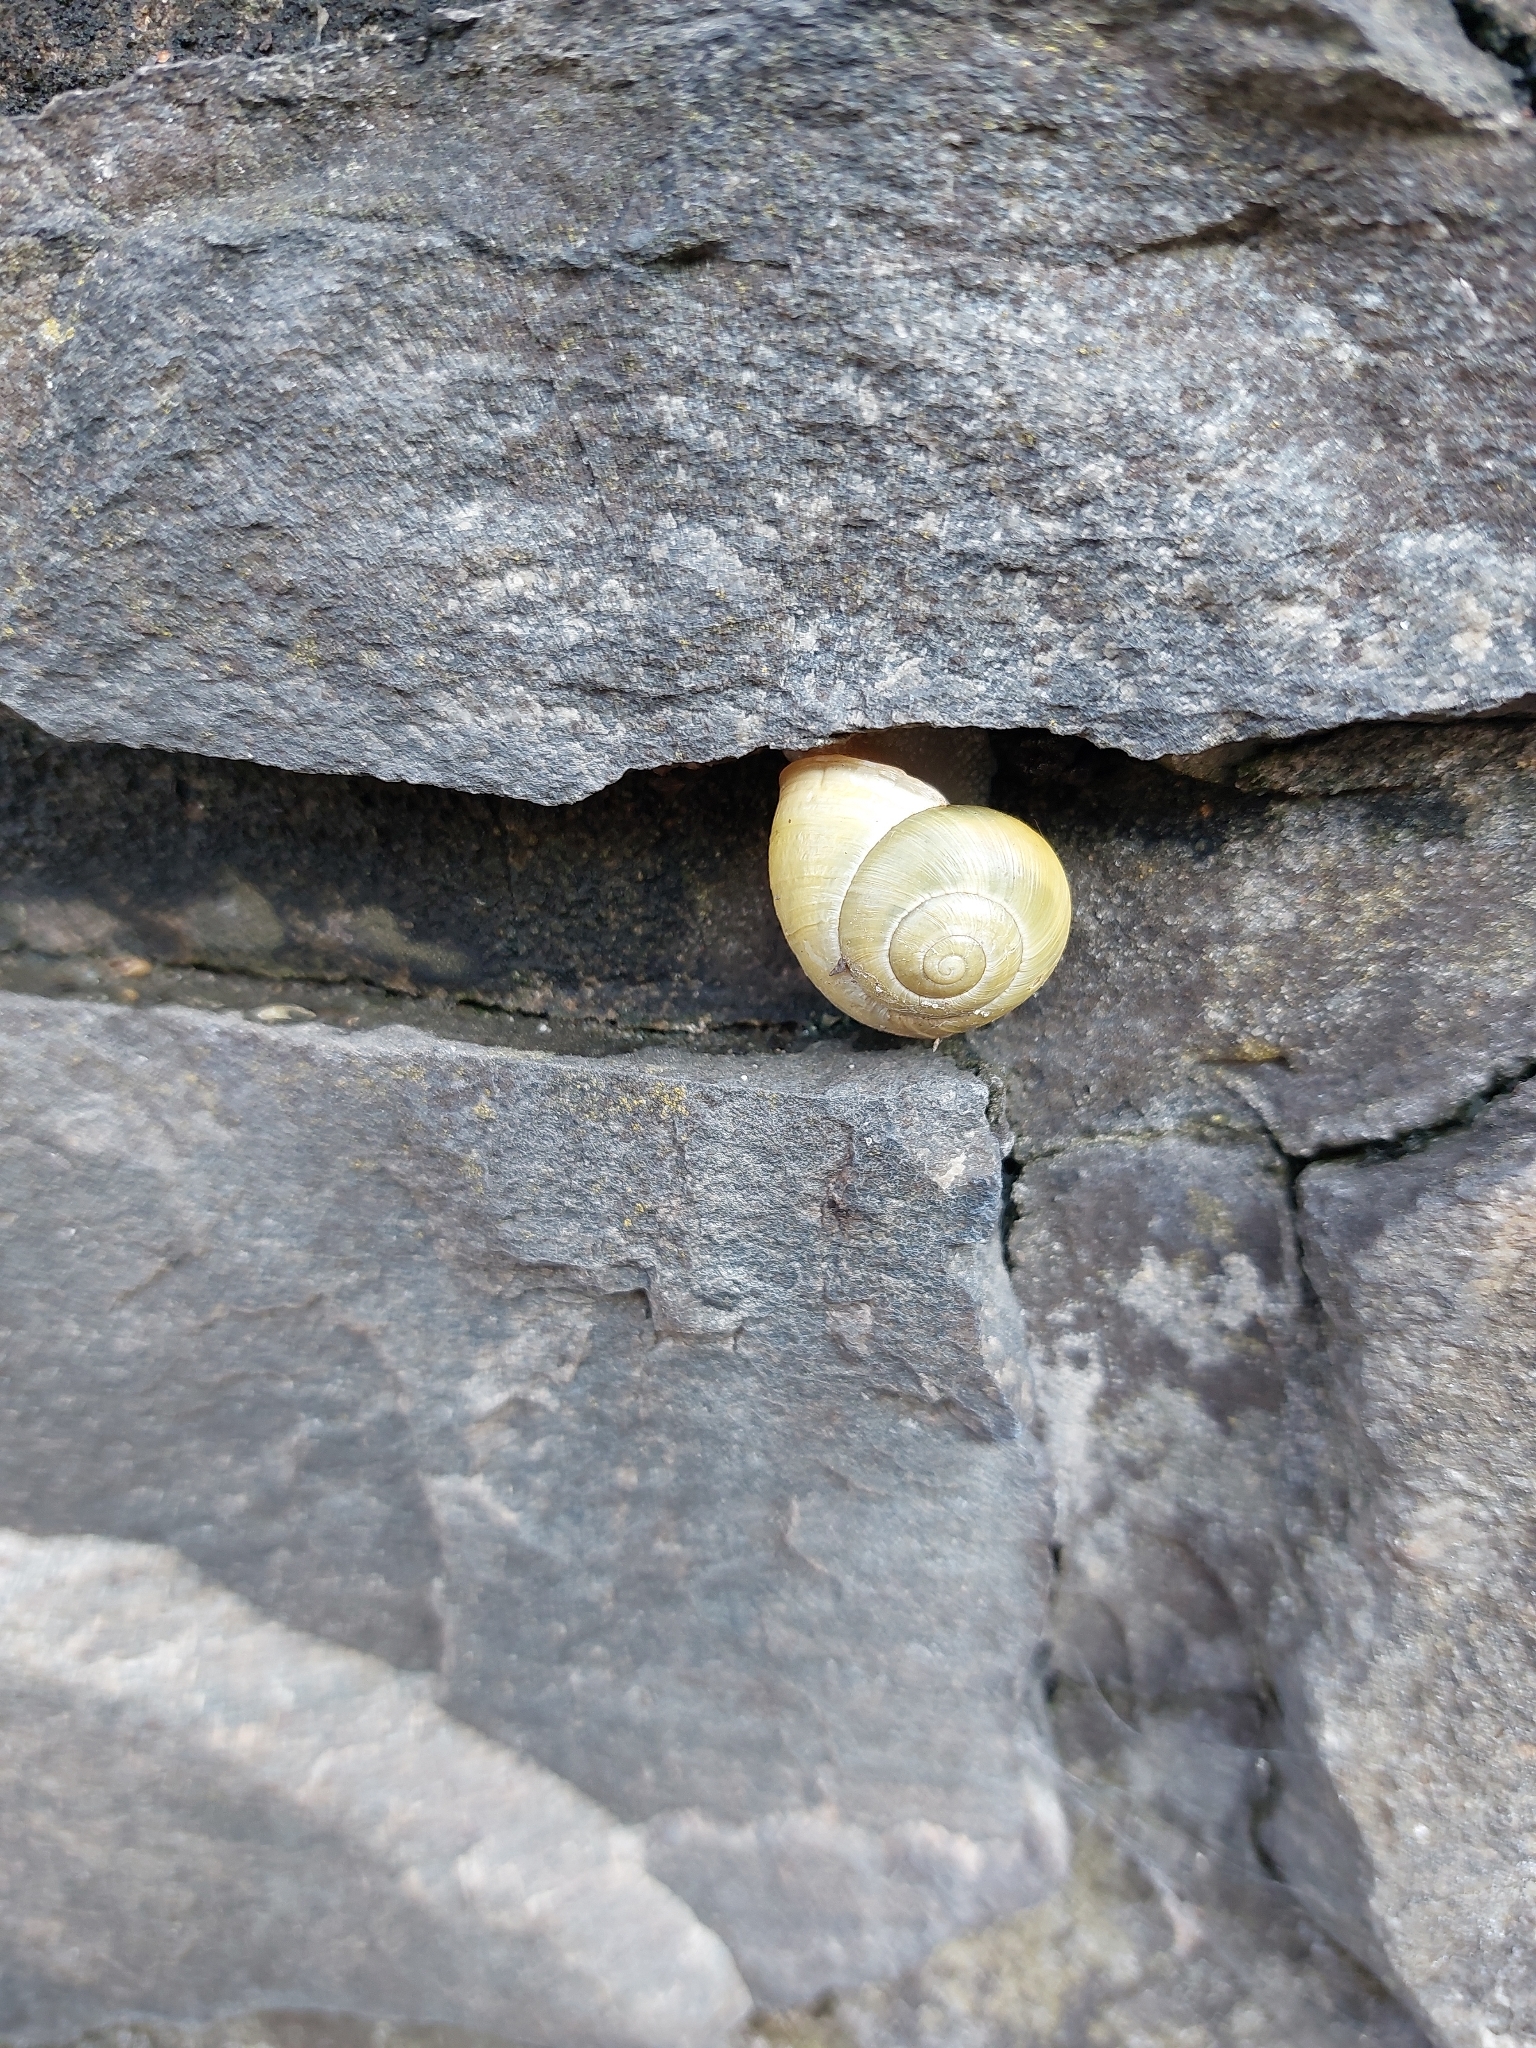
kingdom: Animalia
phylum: Mollusca
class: Gastropoda
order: Stylommatophora
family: Helicidae
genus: Cepaea
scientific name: Cepaea hortensis
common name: White-lip gardensnail
